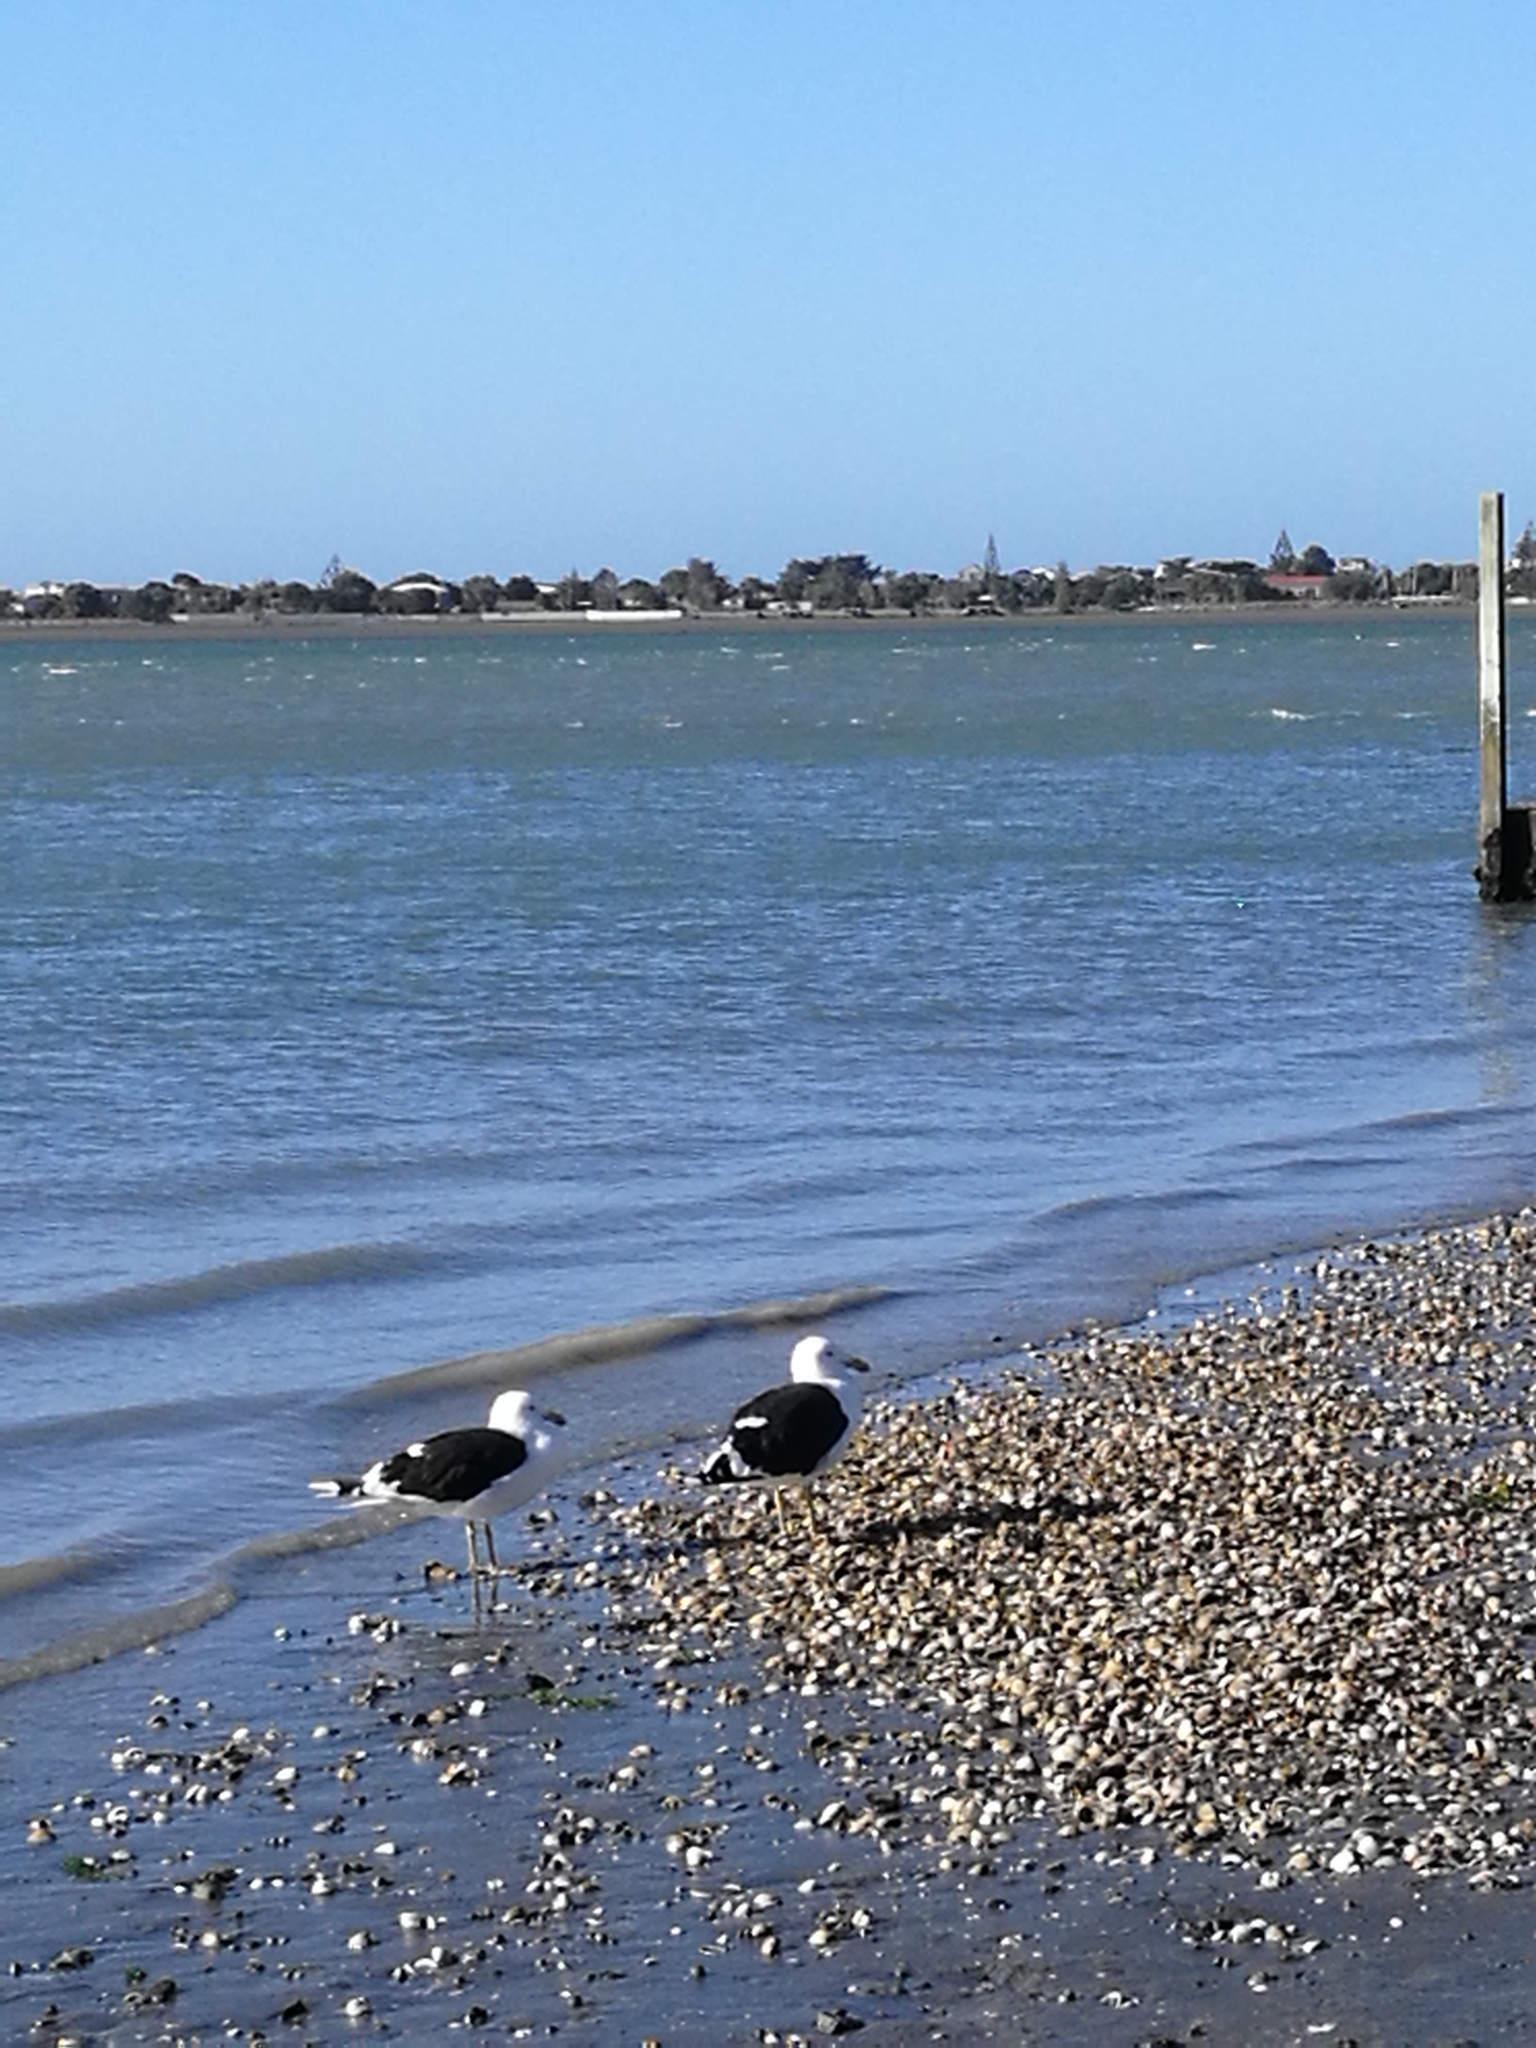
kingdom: Animalia
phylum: Chordata
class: Aves
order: Charadriiformes
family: Laridae
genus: Larus
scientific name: Larus dominicanus
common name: Kelp gull
